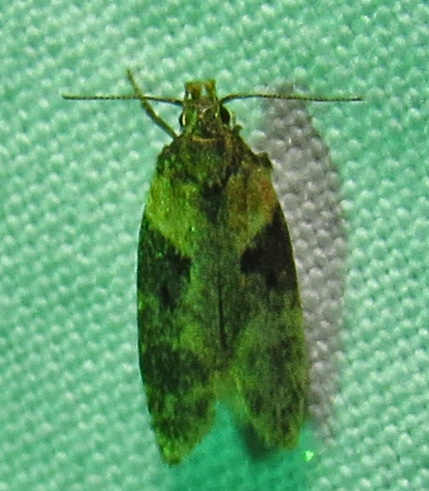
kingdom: Animalia
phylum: Arthropoda
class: Insecta
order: Lepidoptera
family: Gelechiidae
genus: Chionodes
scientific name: Chionodes mediofuscella
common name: Black-smudged chionodes moth
